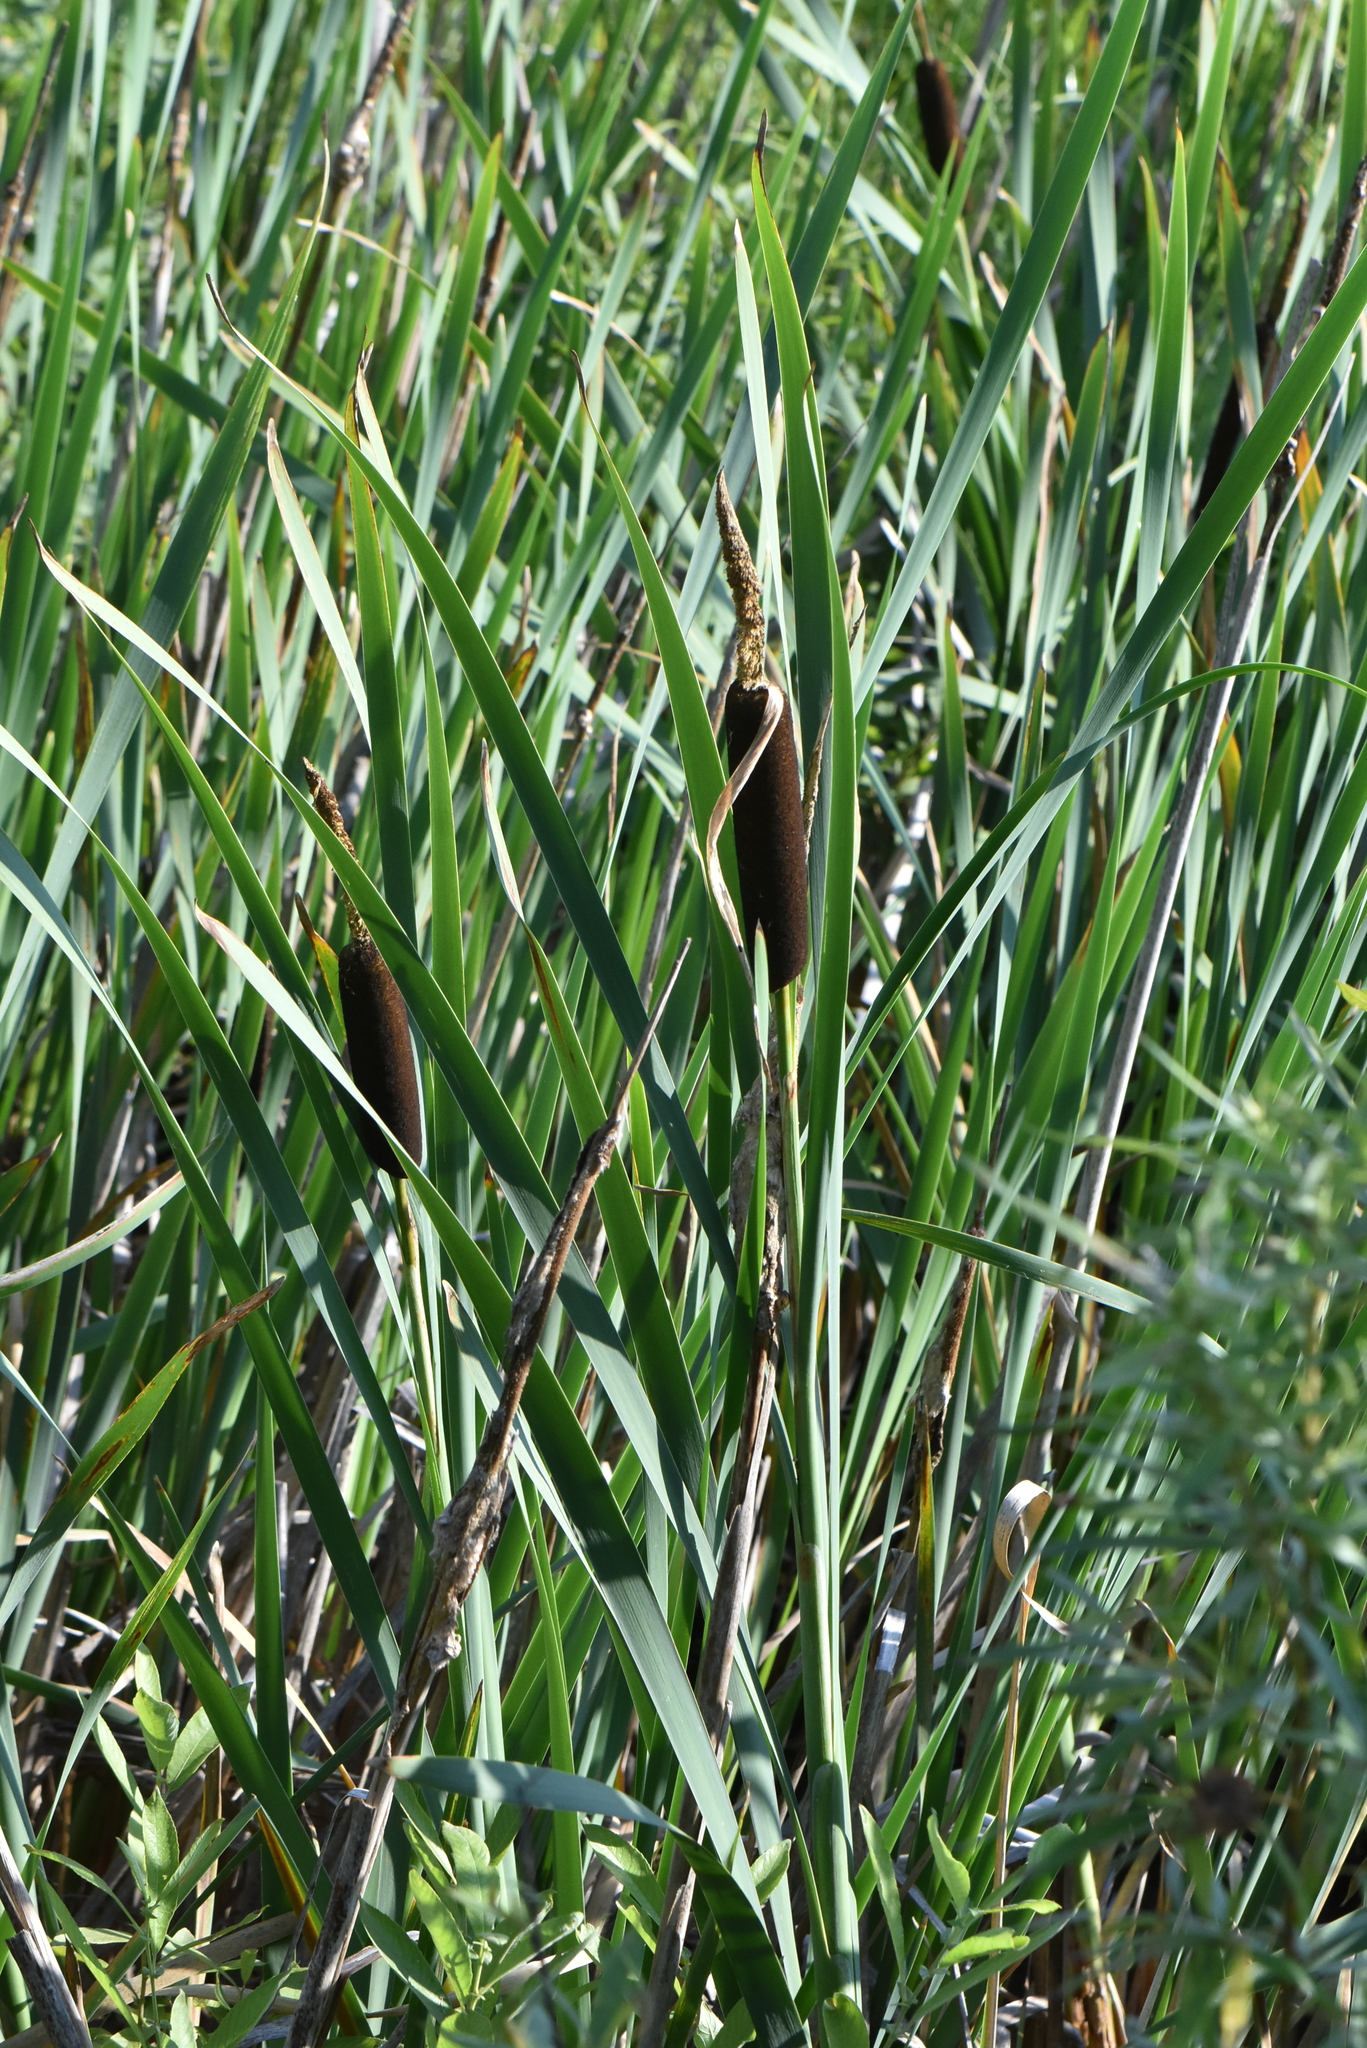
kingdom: Plantae
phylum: Tracheophyta
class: Liliopsida
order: Poales
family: Typhaceae
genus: Typha
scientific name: Typha latifolia
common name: Broadleaf cattail
